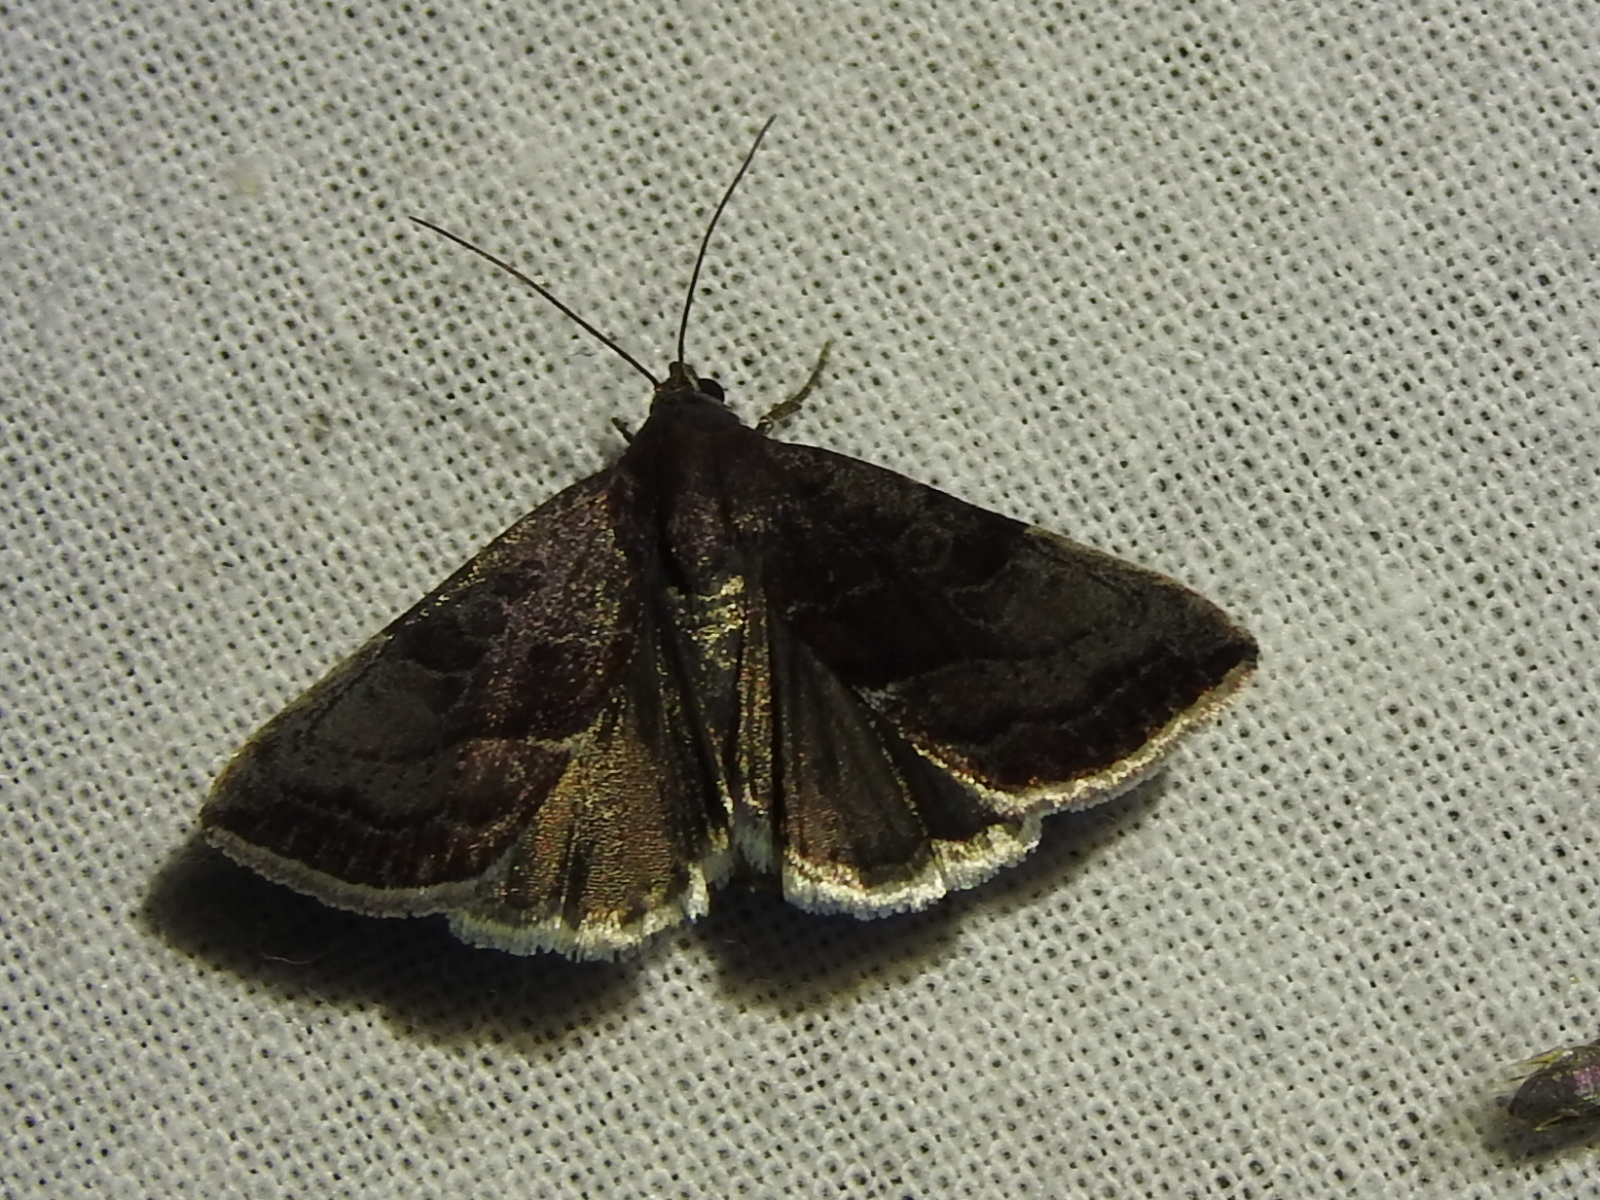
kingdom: Animalia
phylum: Arthropoda
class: Insecta
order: Lepidoptera
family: Noctuidae
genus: Galgula
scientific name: Galgula partita
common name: Wedgeling
